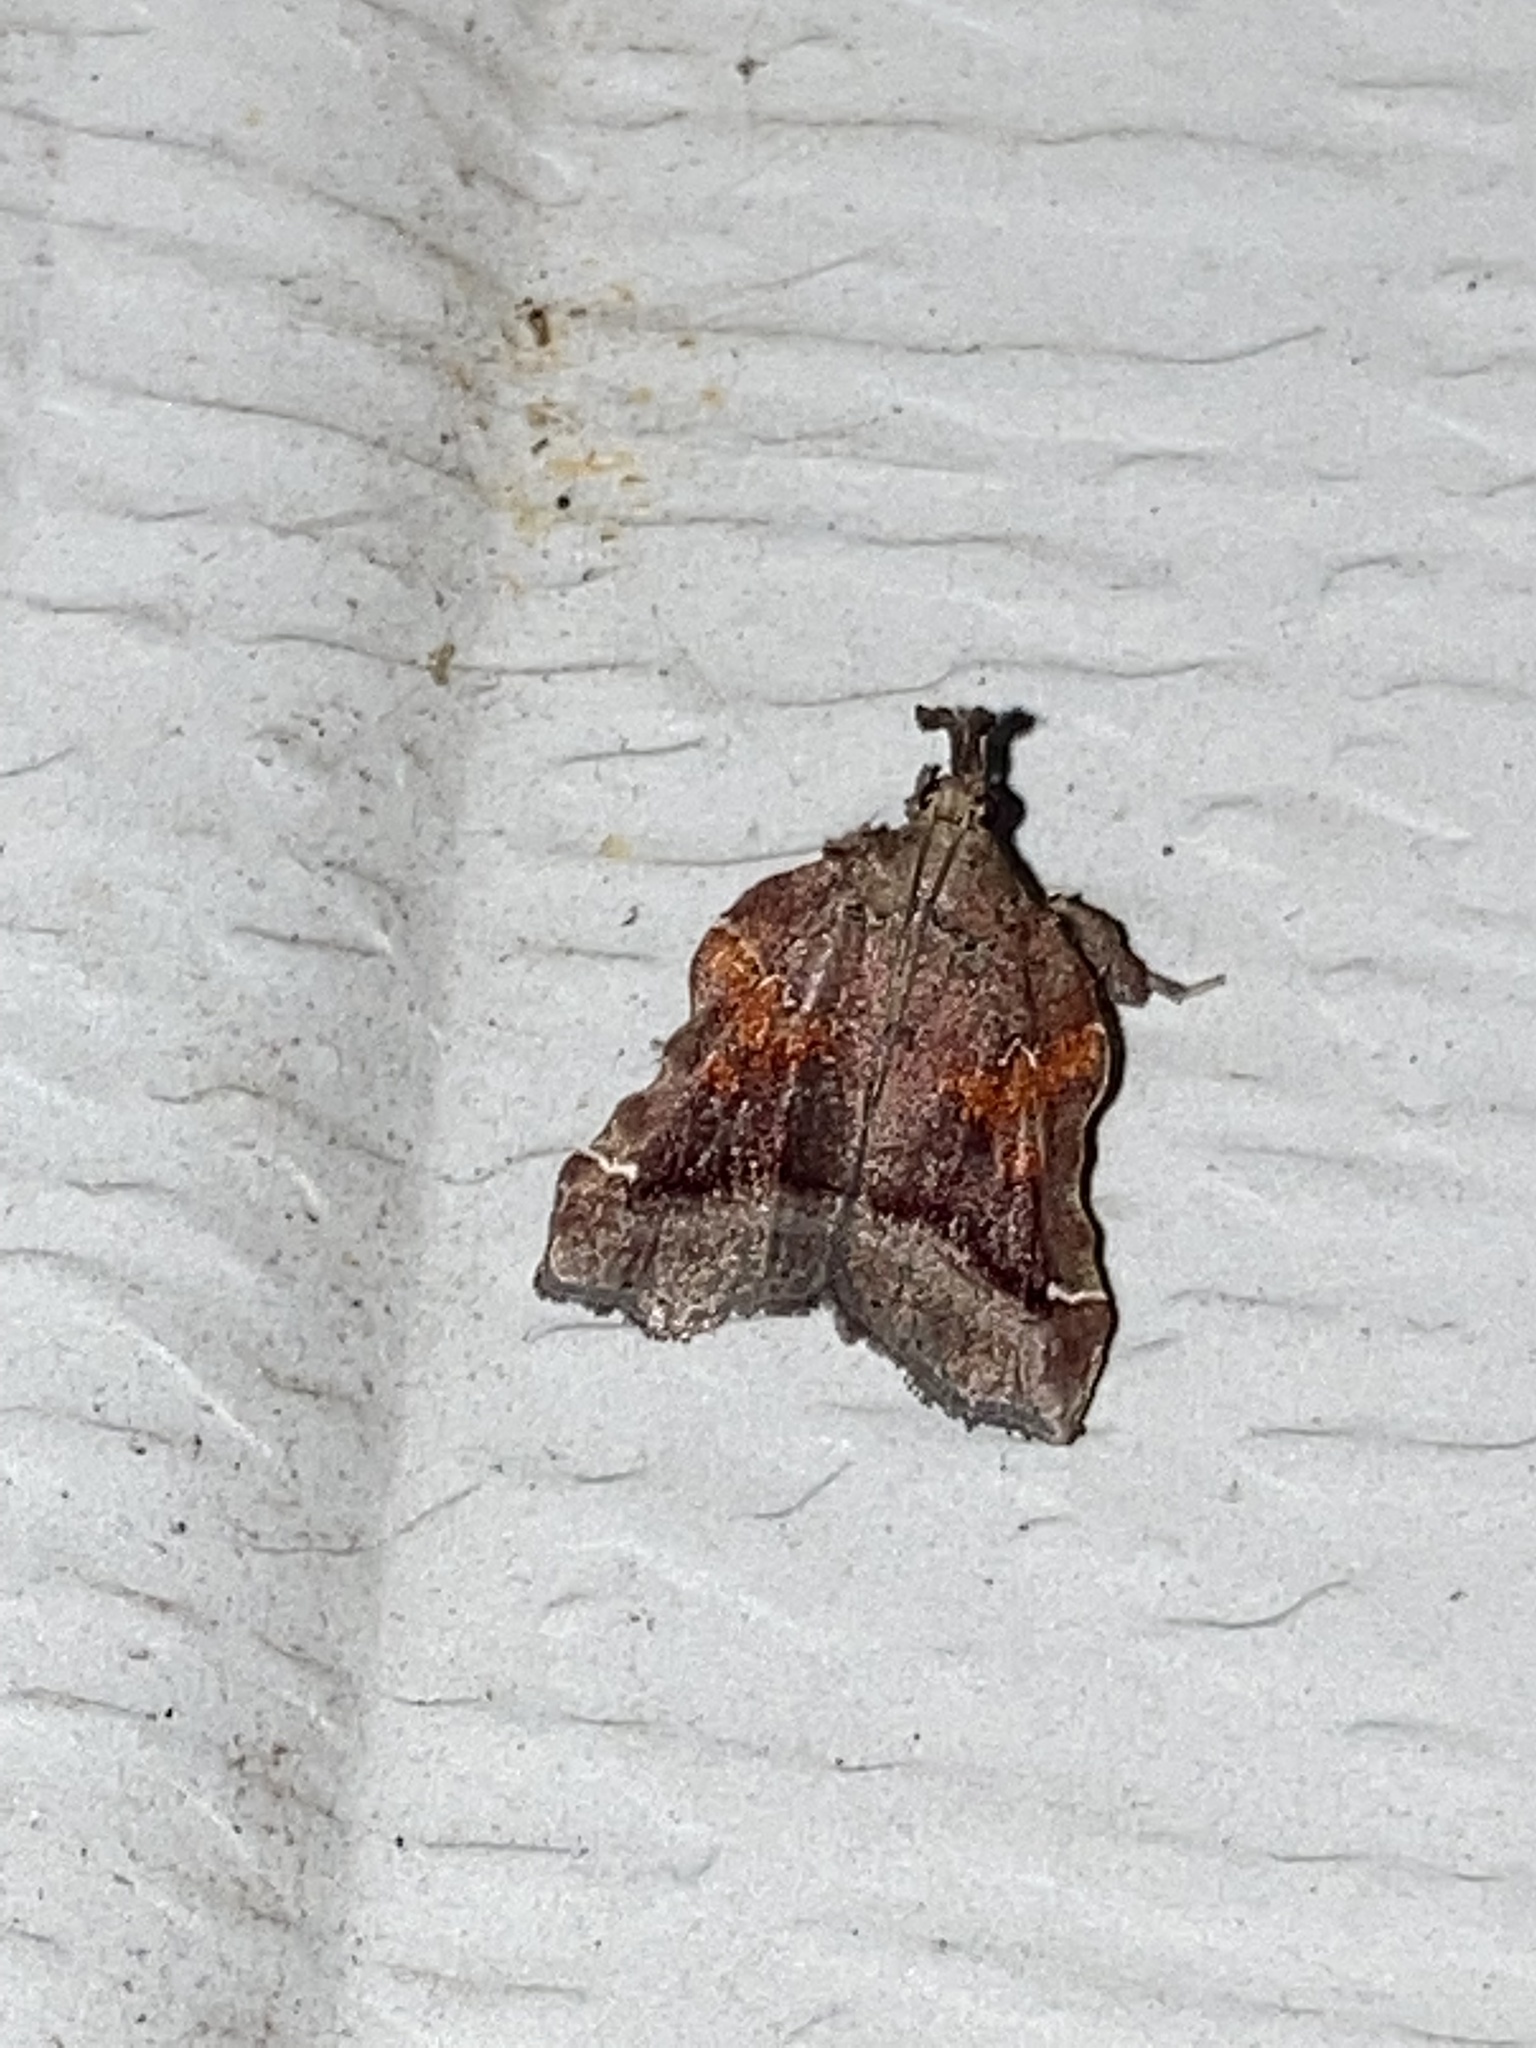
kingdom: Animalia
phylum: Arthropoda
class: Insecta
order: Lepidoptera
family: Pyralidae
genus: Clydonopteron
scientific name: Clydonopteron sacculana
